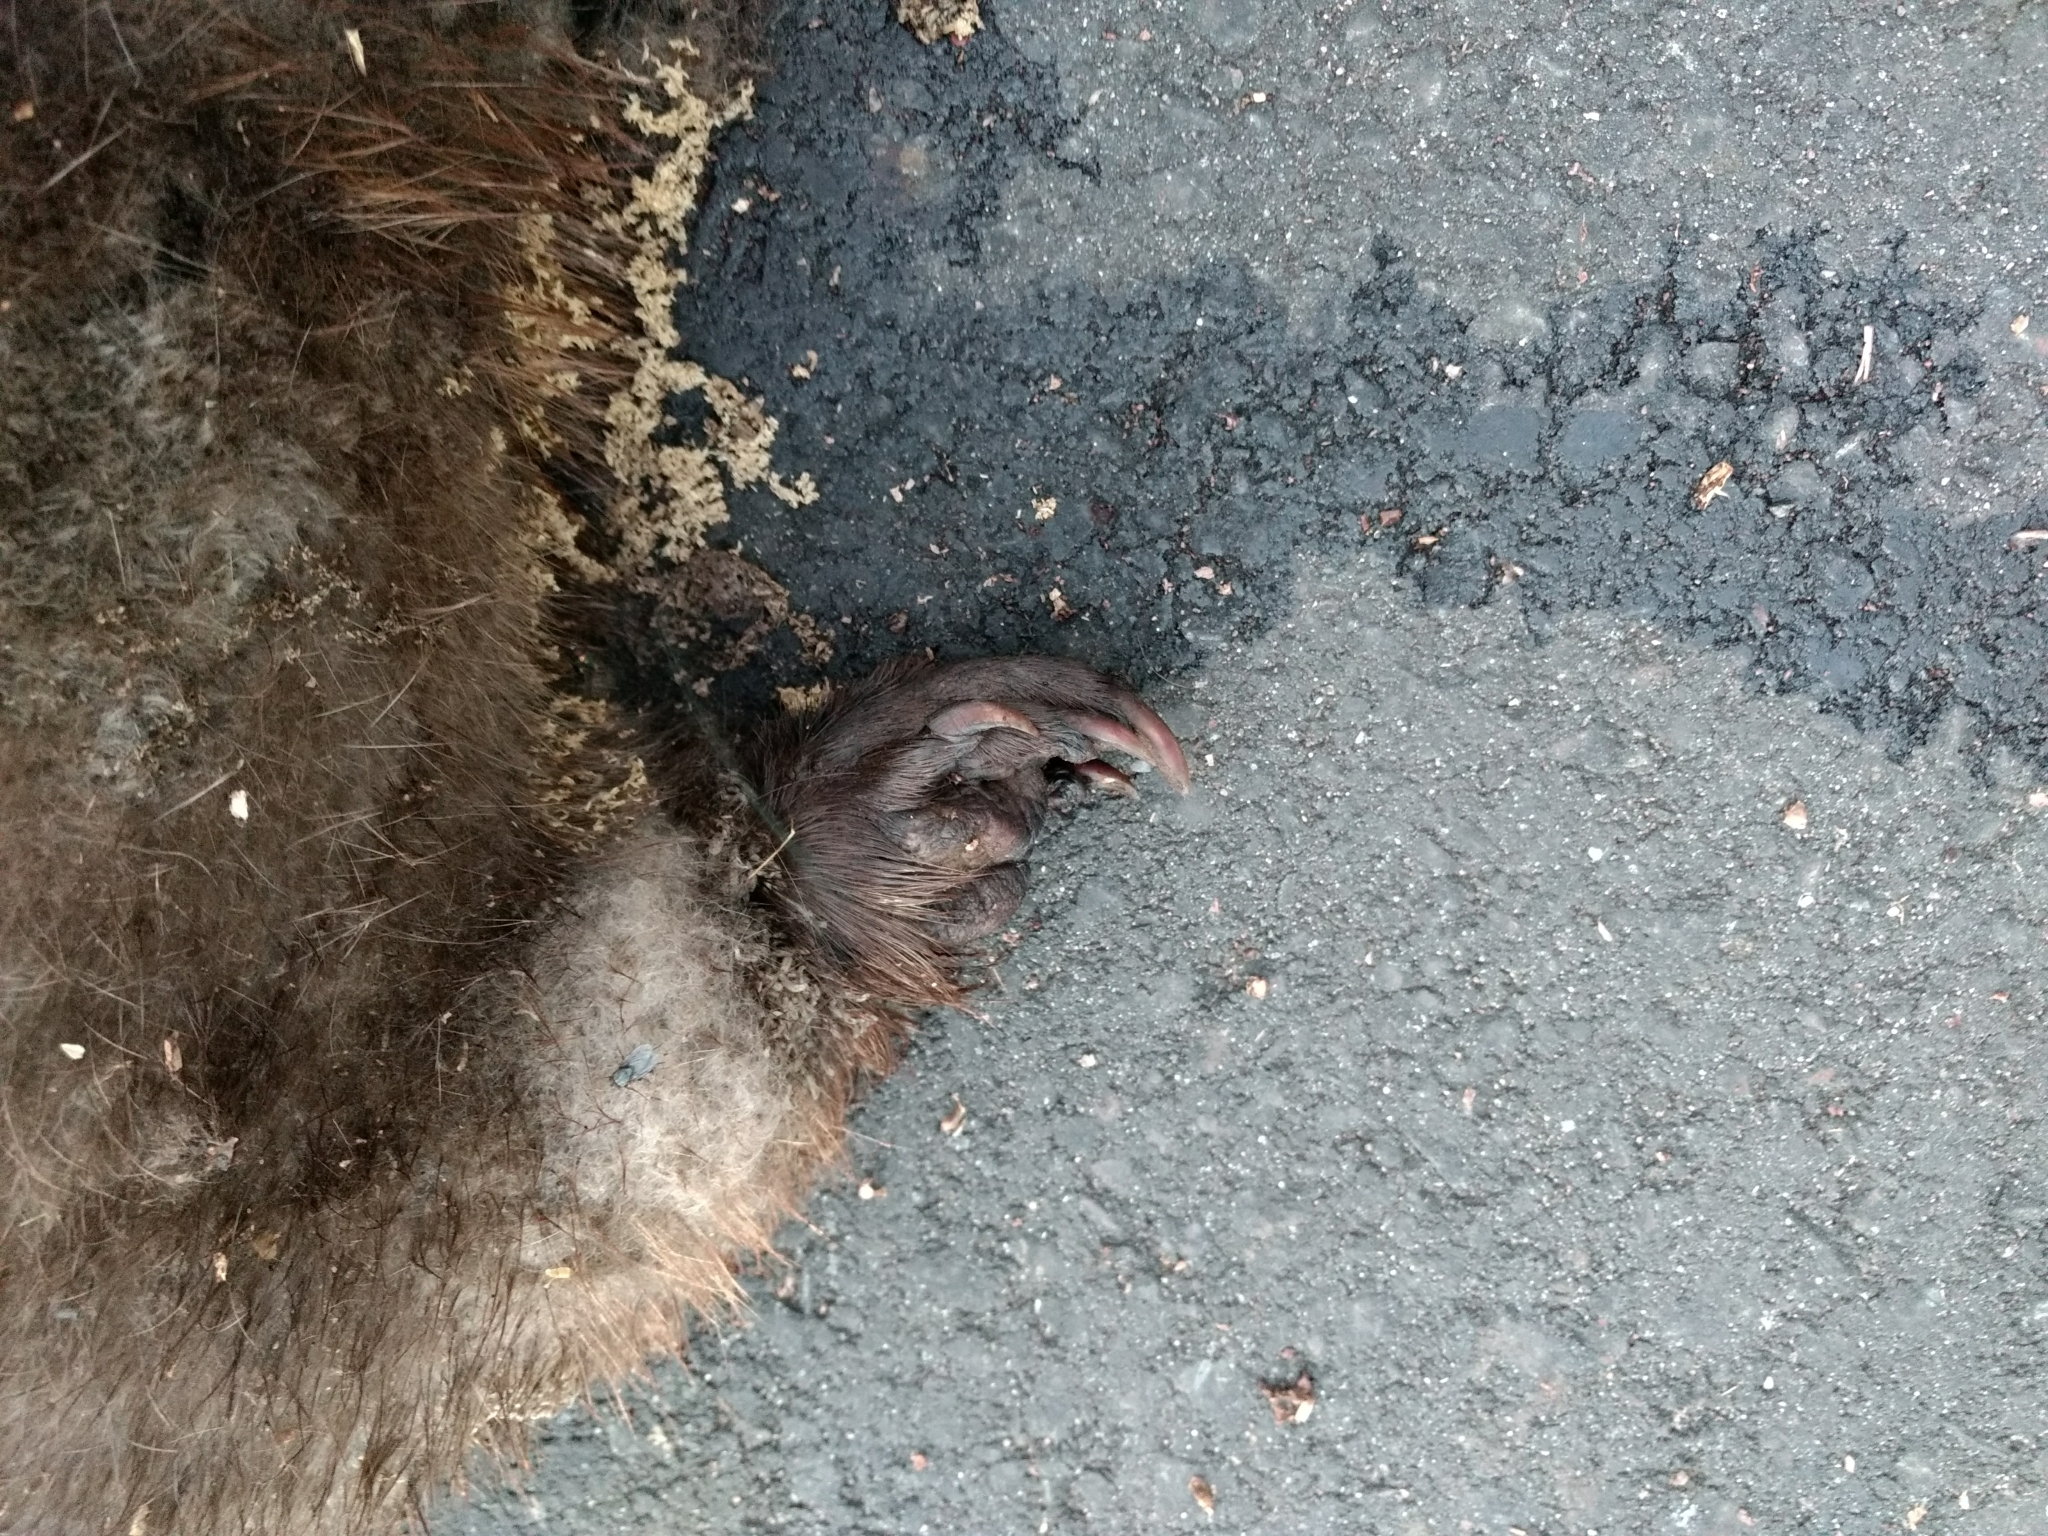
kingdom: Animalia
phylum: Chordata
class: Mammalia
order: Rodentia
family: Castoridae
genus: Castor
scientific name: Castor canadensis
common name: American beaver
